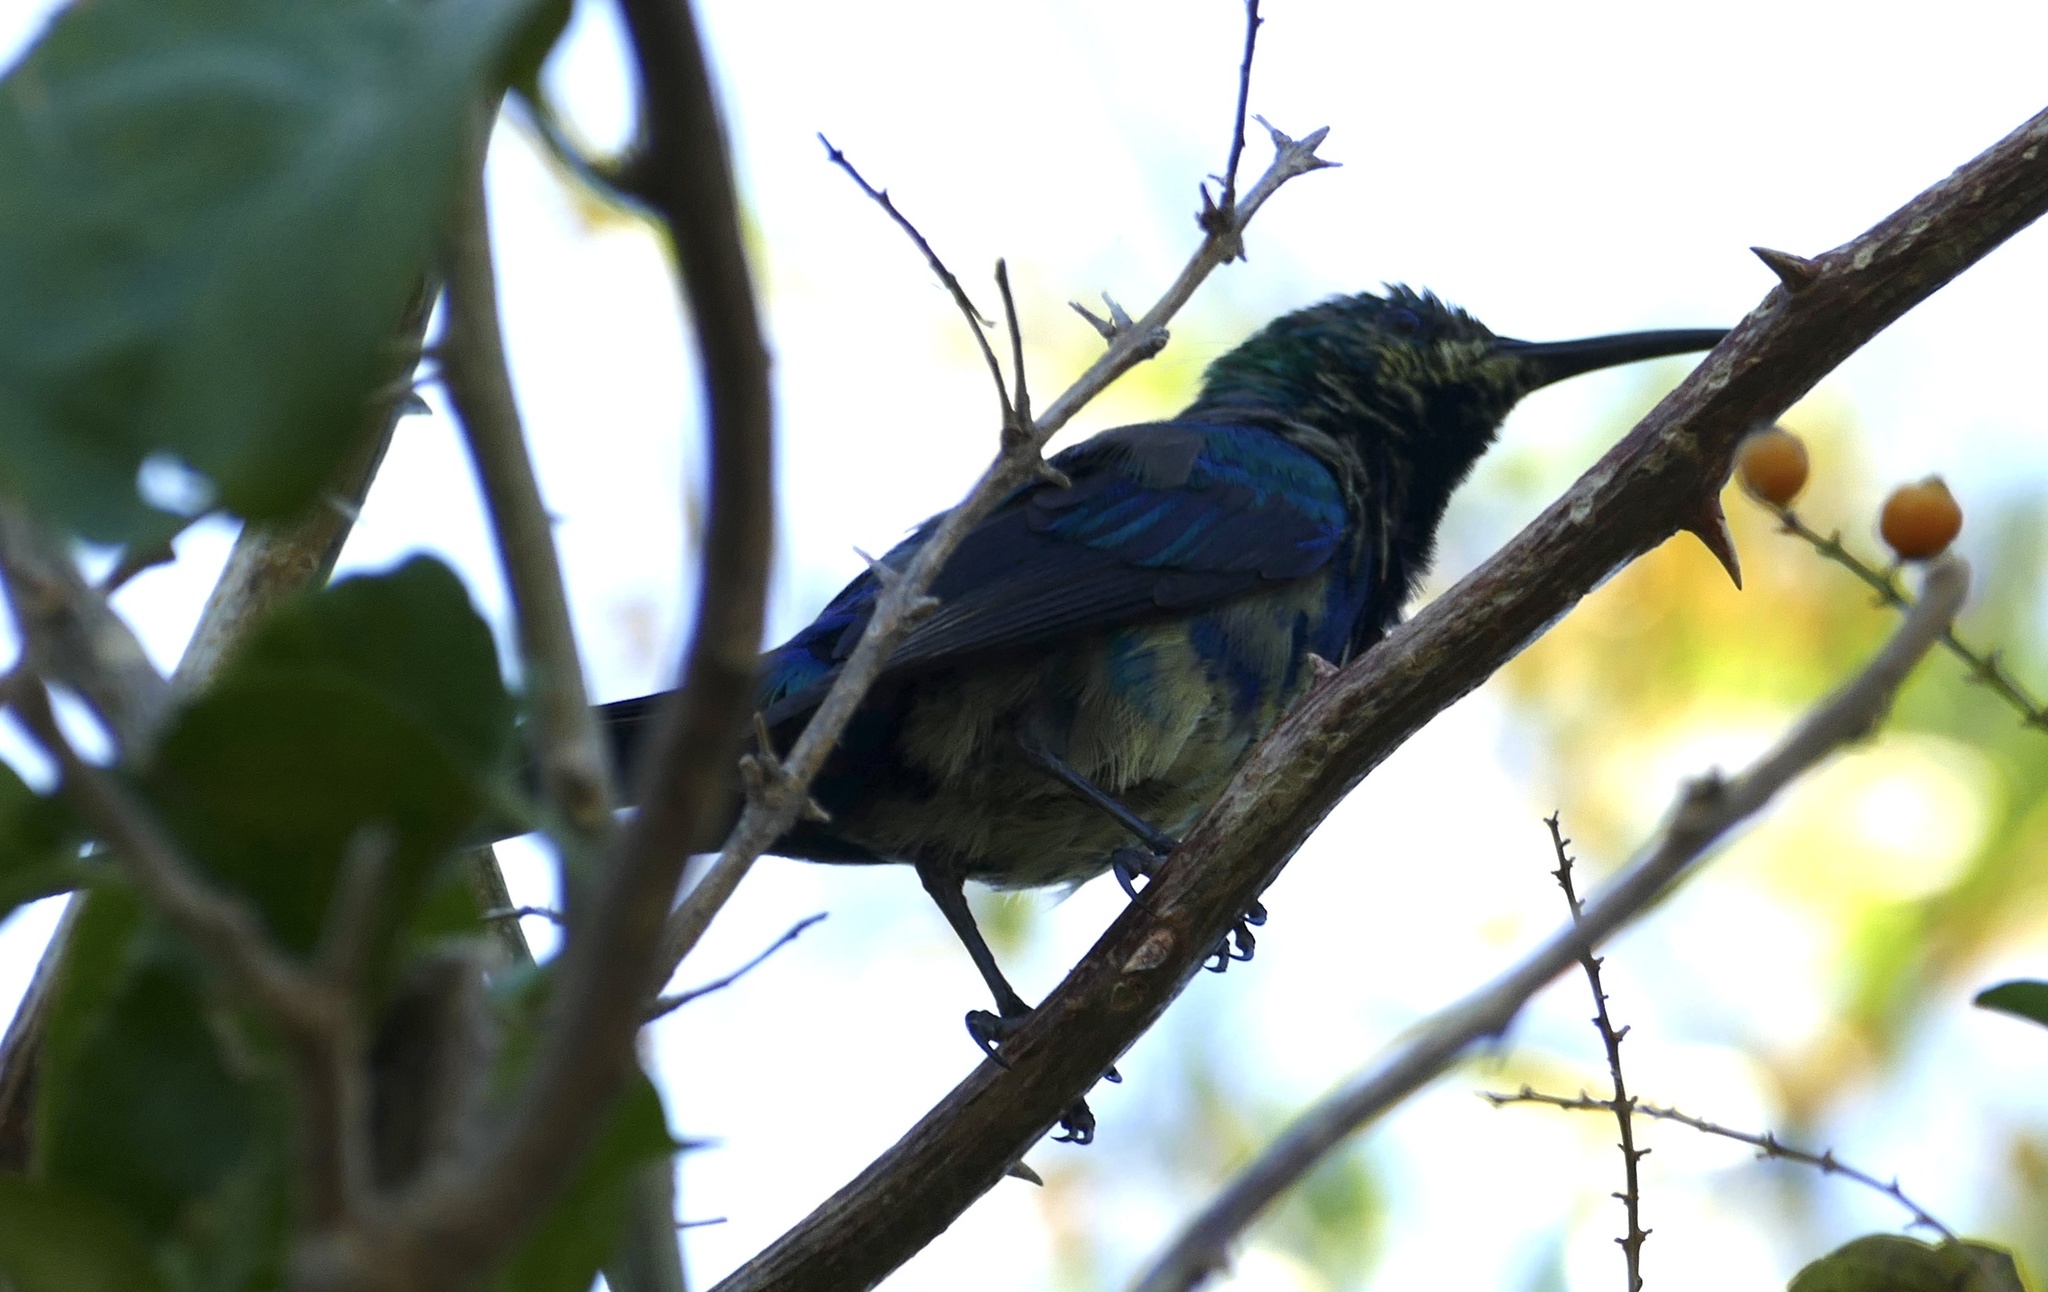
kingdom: Animalia
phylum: Chordata
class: Aves
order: Passeriformes
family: Nectariniidae
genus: Nectarinia
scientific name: Nectarinia famosa
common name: Malachite sunbird
